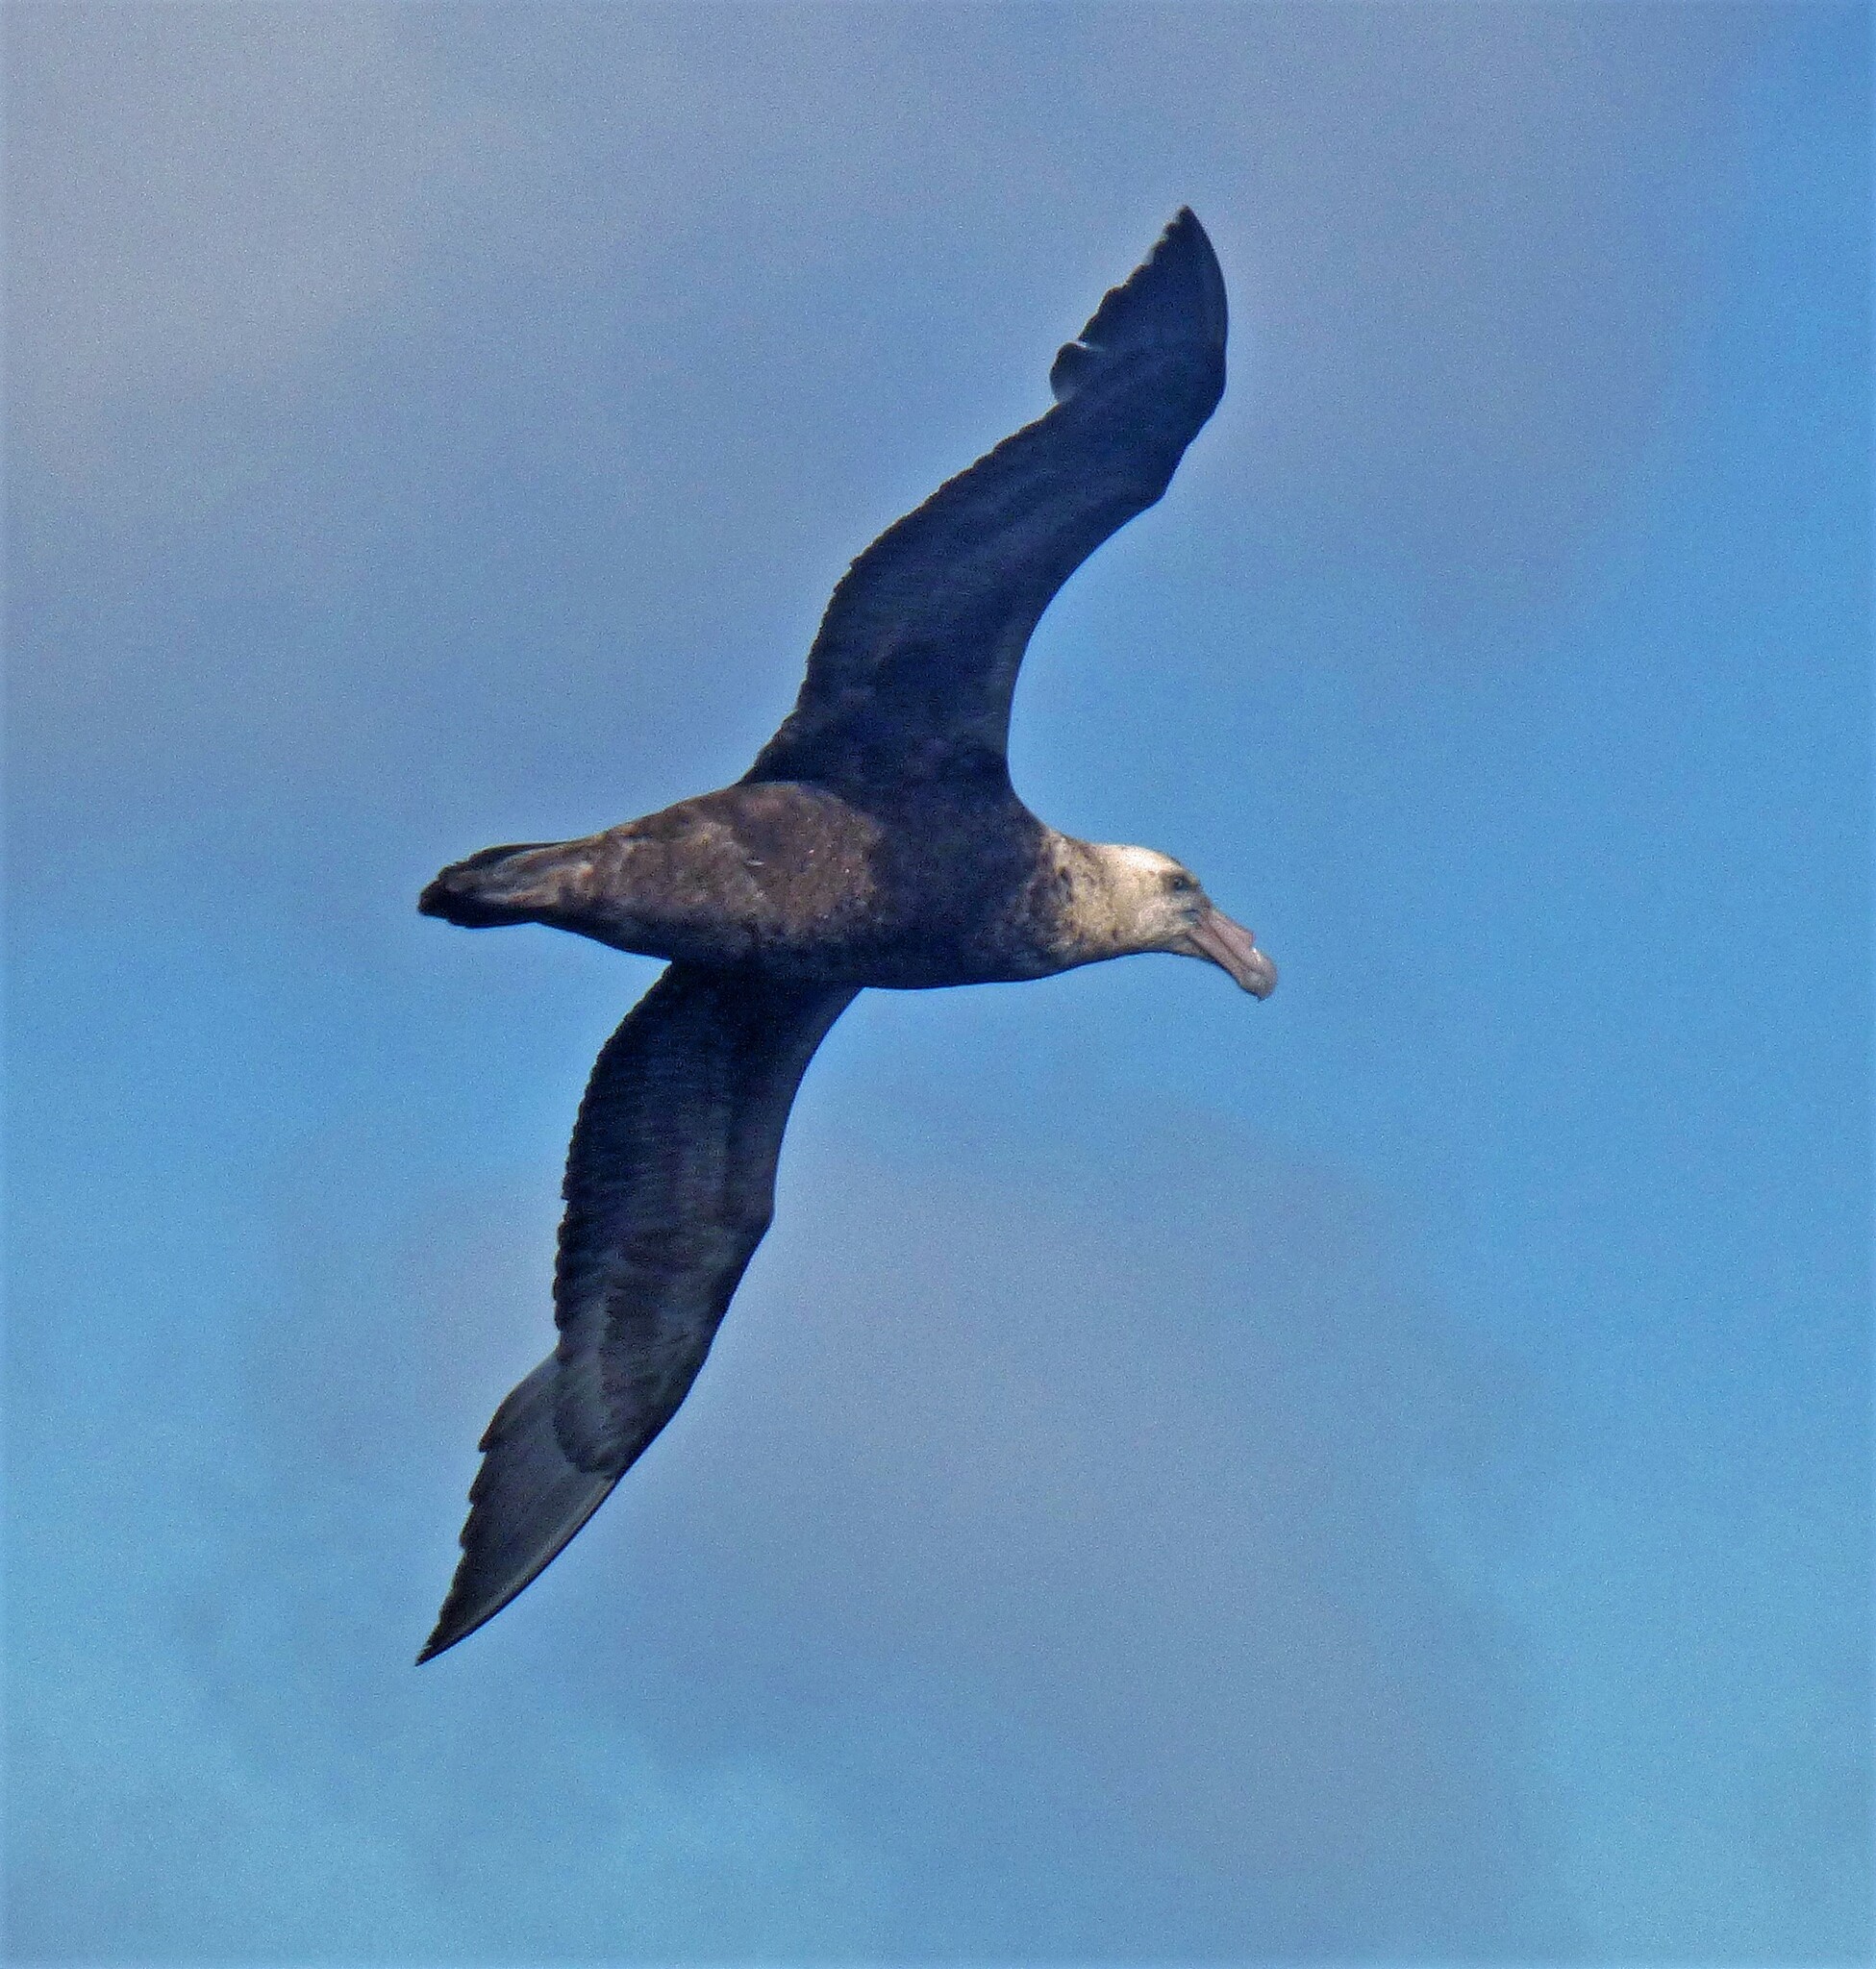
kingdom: Animalia
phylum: Chordata
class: Aves
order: Procellariiformes
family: Procellariidae
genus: Macronectes
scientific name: Macronectes giganteus
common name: Southern giant petrel
